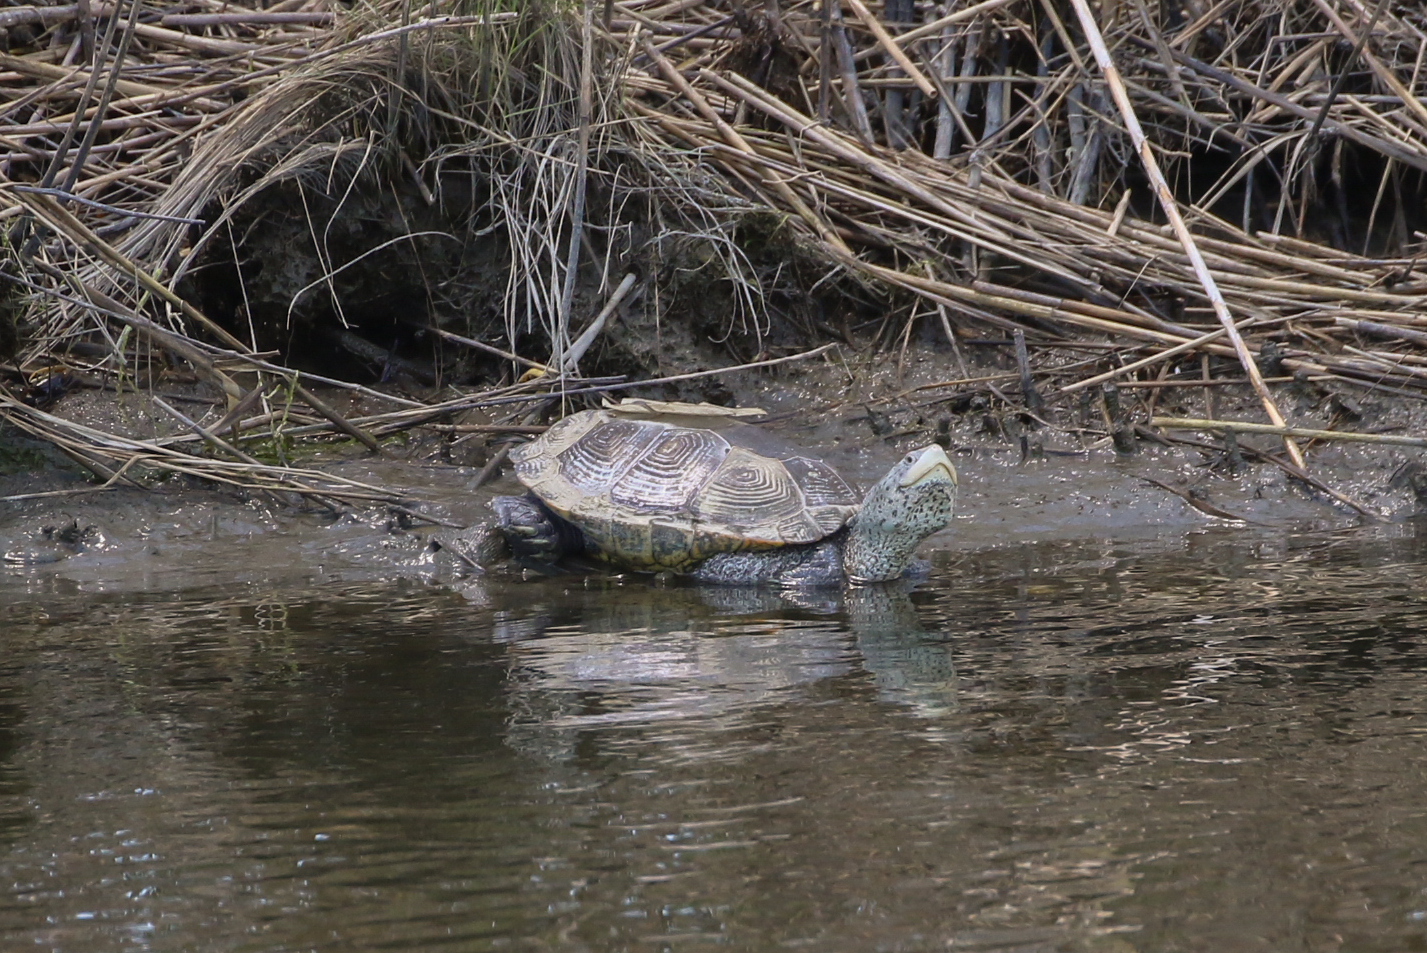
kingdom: Animalia
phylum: Chordata
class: Testudines
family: Emydidae
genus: Malaclemys
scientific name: Malaclemys terrapin
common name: Diamondback terrapin
